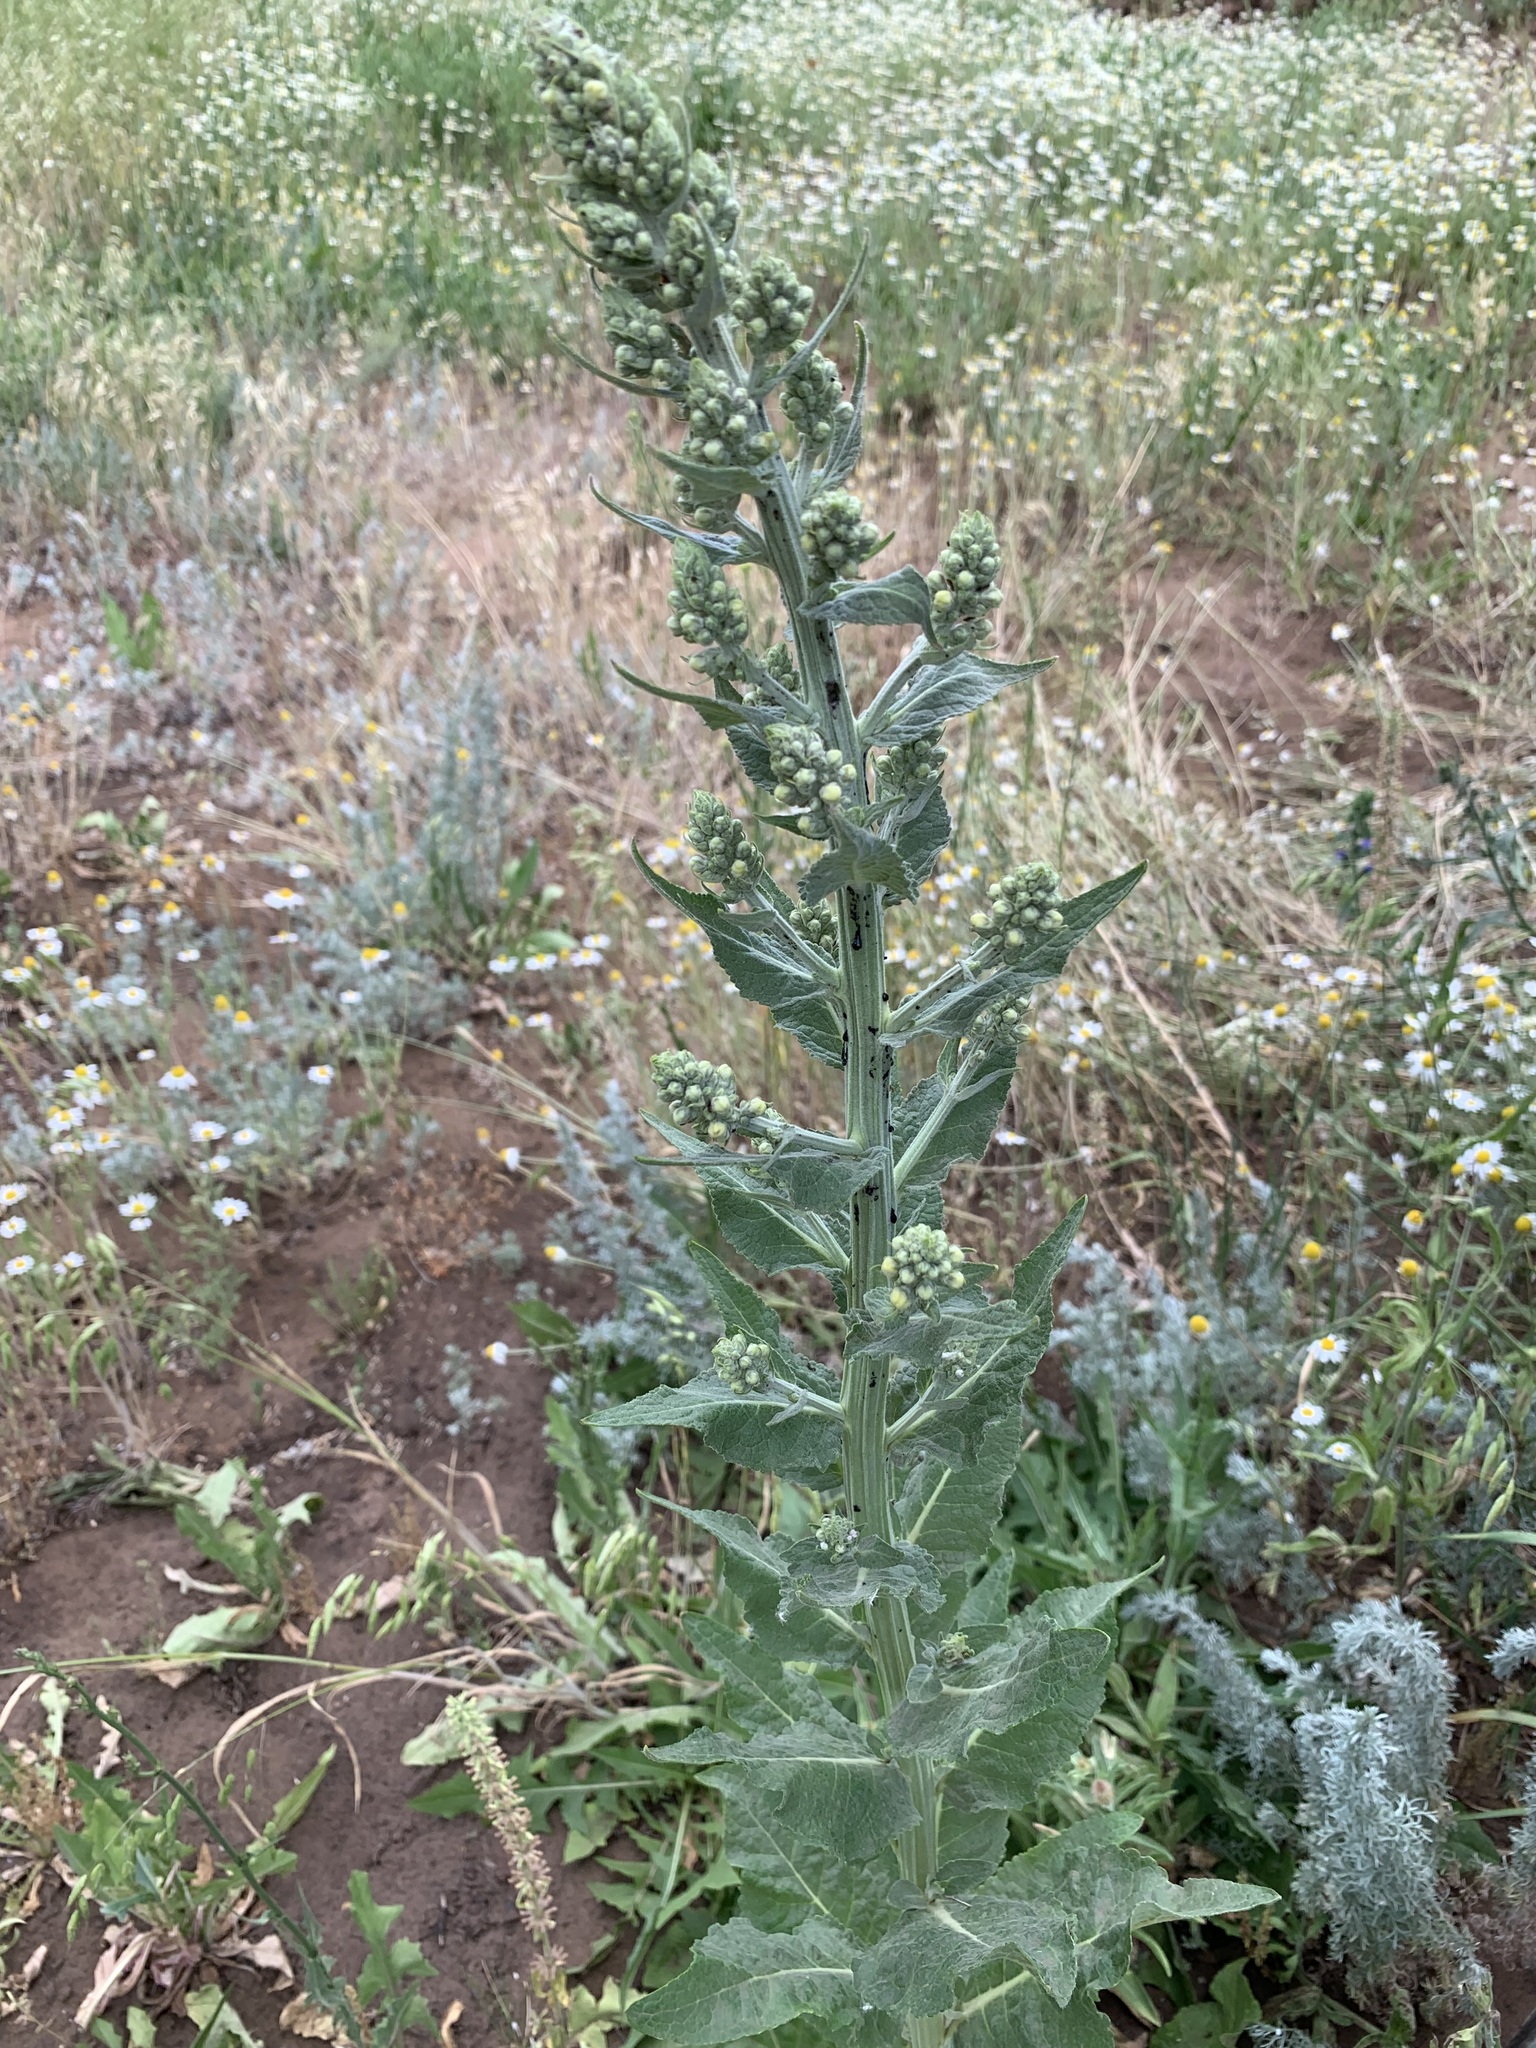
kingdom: Plantae
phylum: Tracheophyta
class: Magnoliopsida
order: Lamiales
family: Scrophulariaceae
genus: Verbascum
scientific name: Verbascum lychnitis
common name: White mullein
